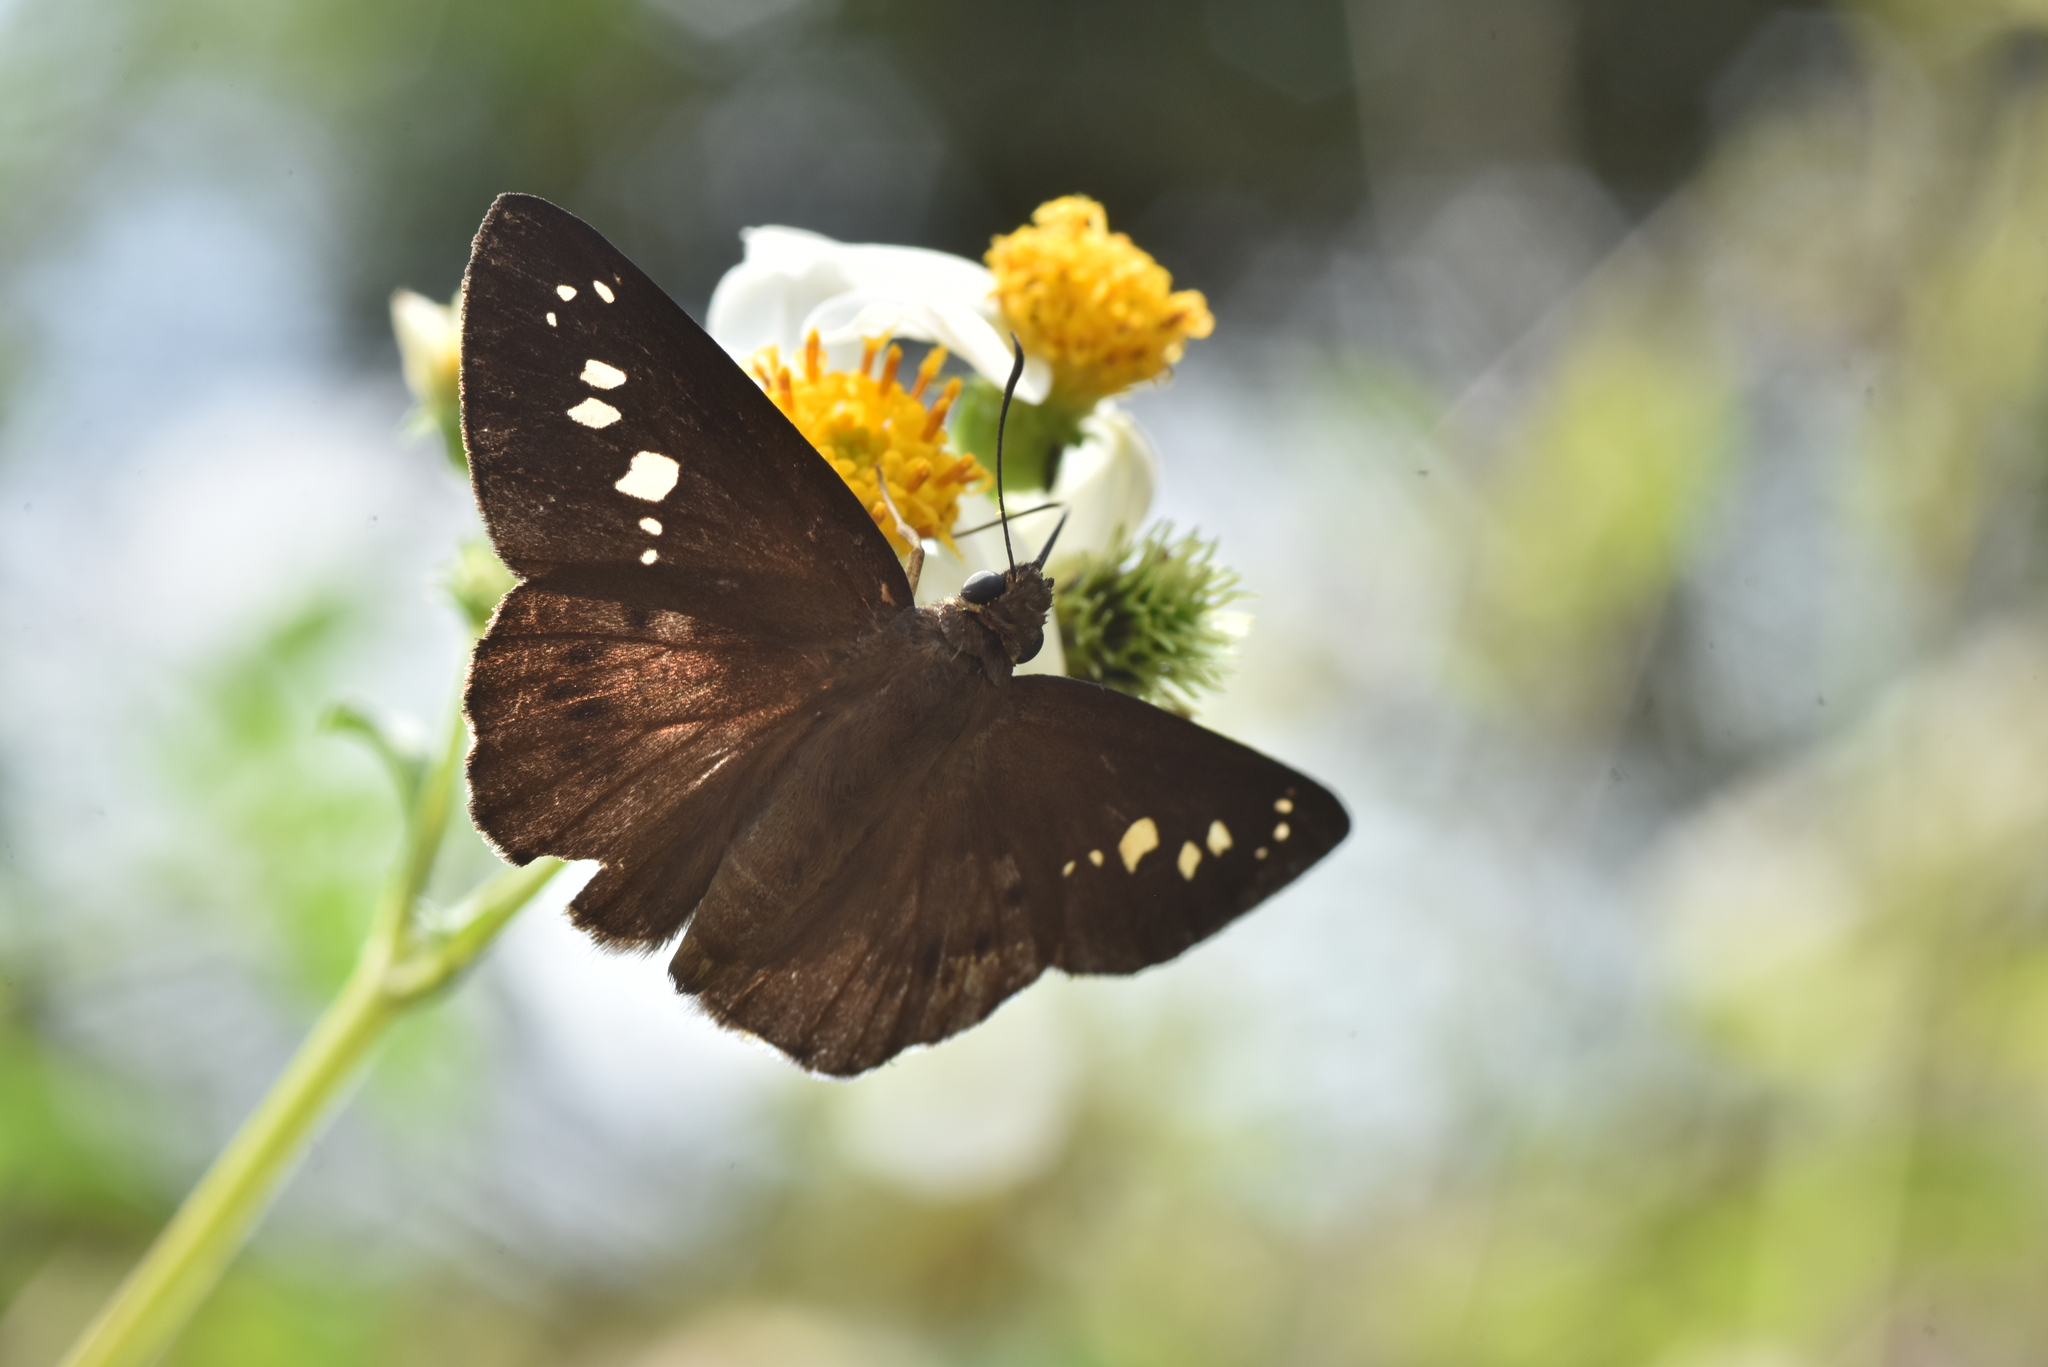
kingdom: Animalia
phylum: Arthropoda
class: Insecta
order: Lepidoptera
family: Hesperiidae
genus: Seseria
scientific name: Seseria formosana
